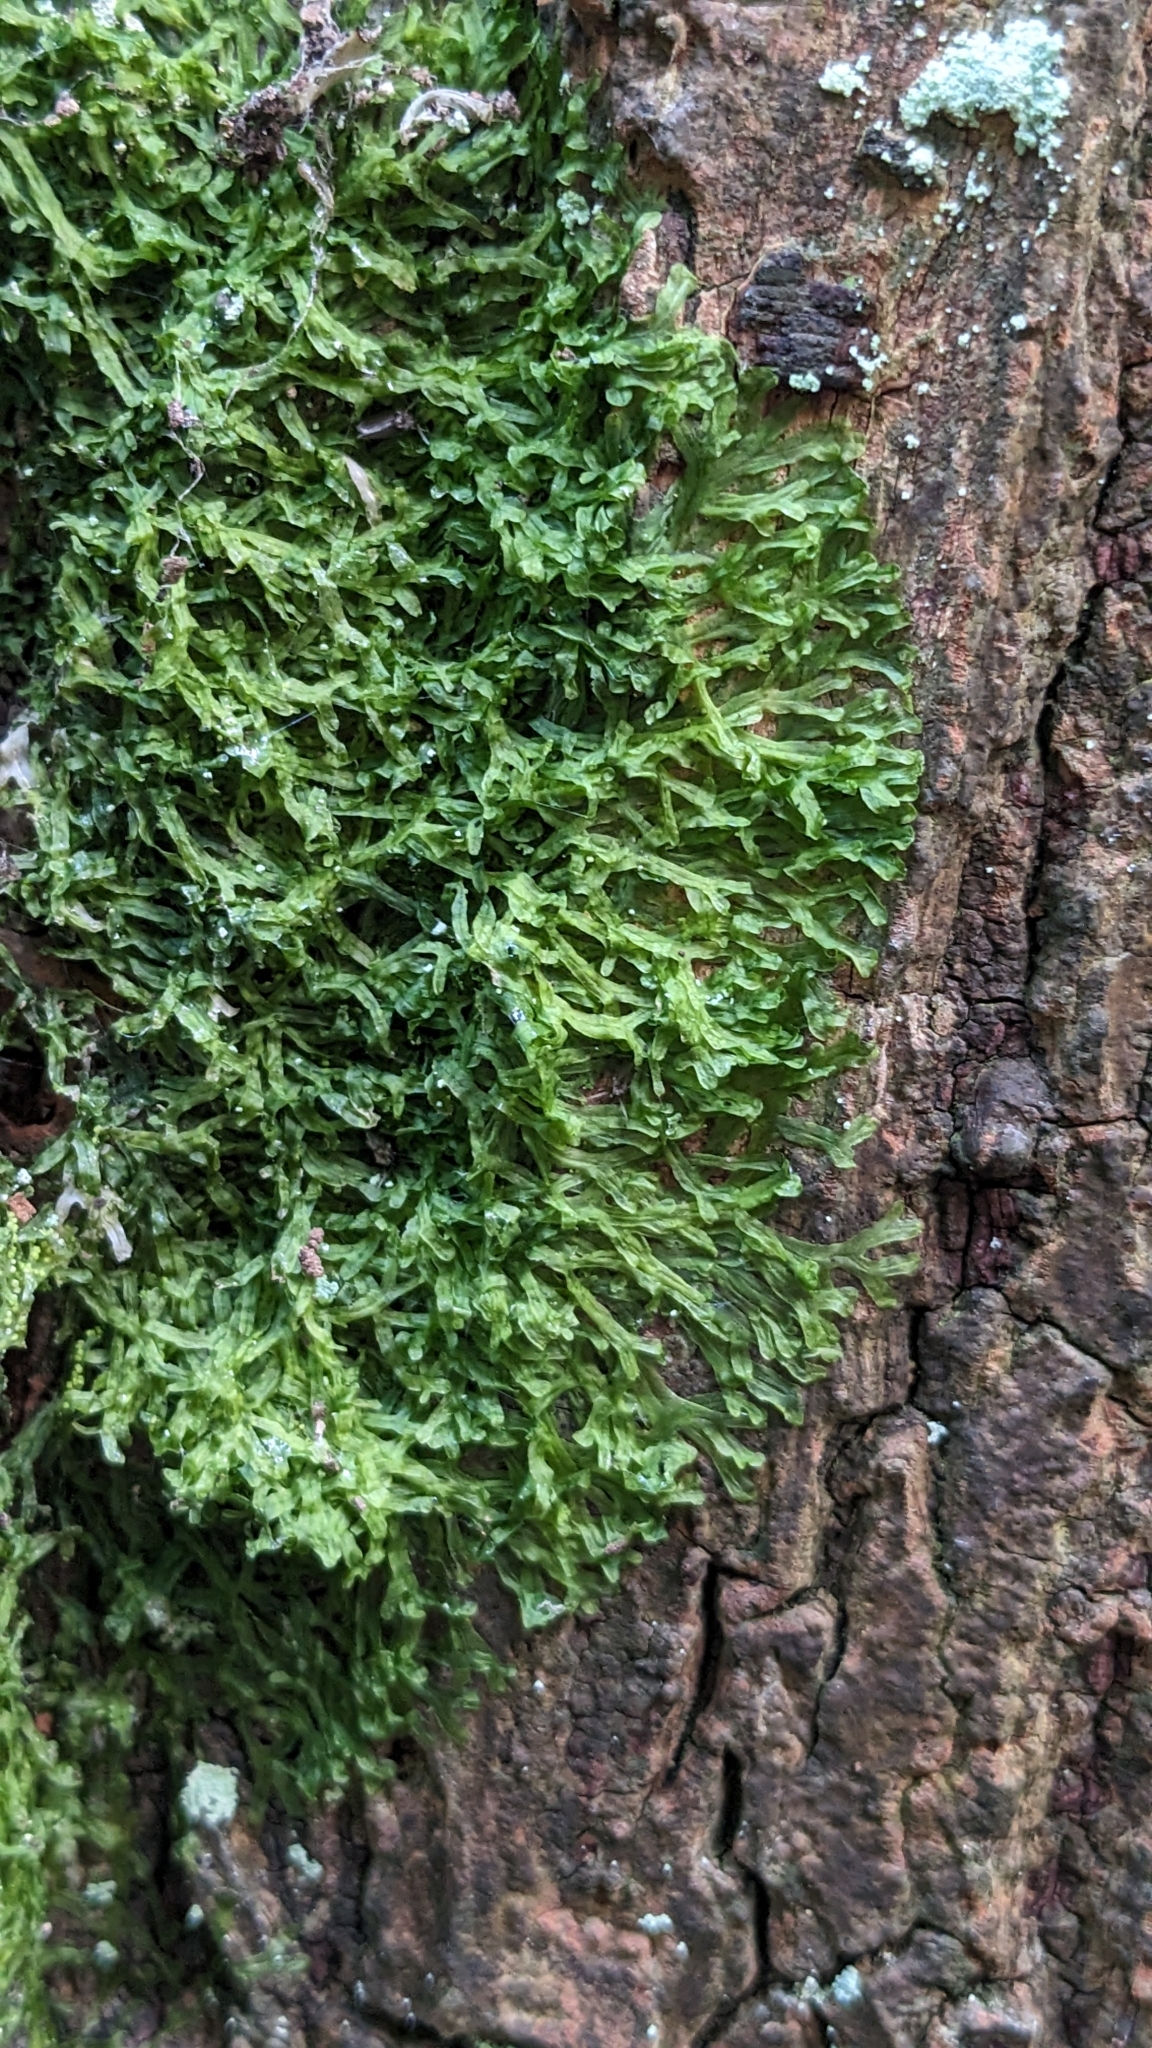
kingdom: Plantae
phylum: Marchantiophyta
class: Jungermanniopsida
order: Metzgeriales
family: Metzgeriaceae
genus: Metzgeria
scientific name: Metzgeria furcata
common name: Forked veilwort
